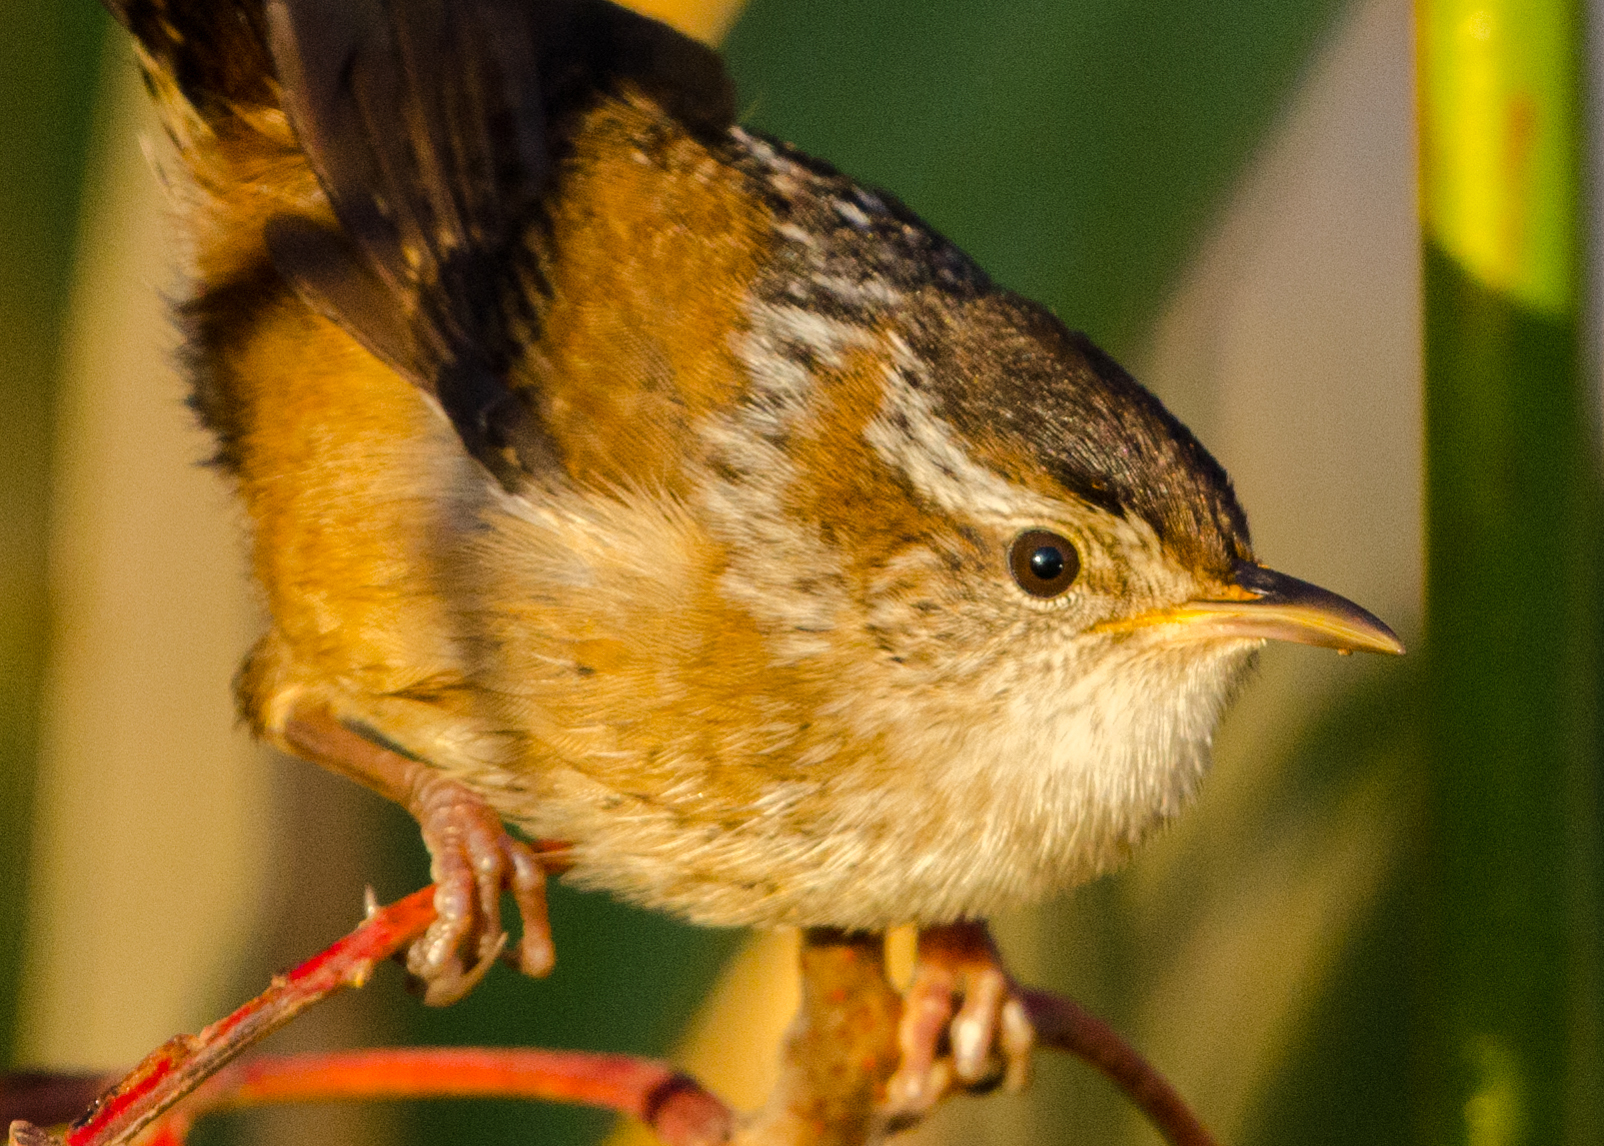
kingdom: Animalia
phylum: Chordata
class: Aves
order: Passeriformes
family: Troglodytidae
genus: Cistothorus
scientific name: Cistothorus palustris
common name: Marsh wren
